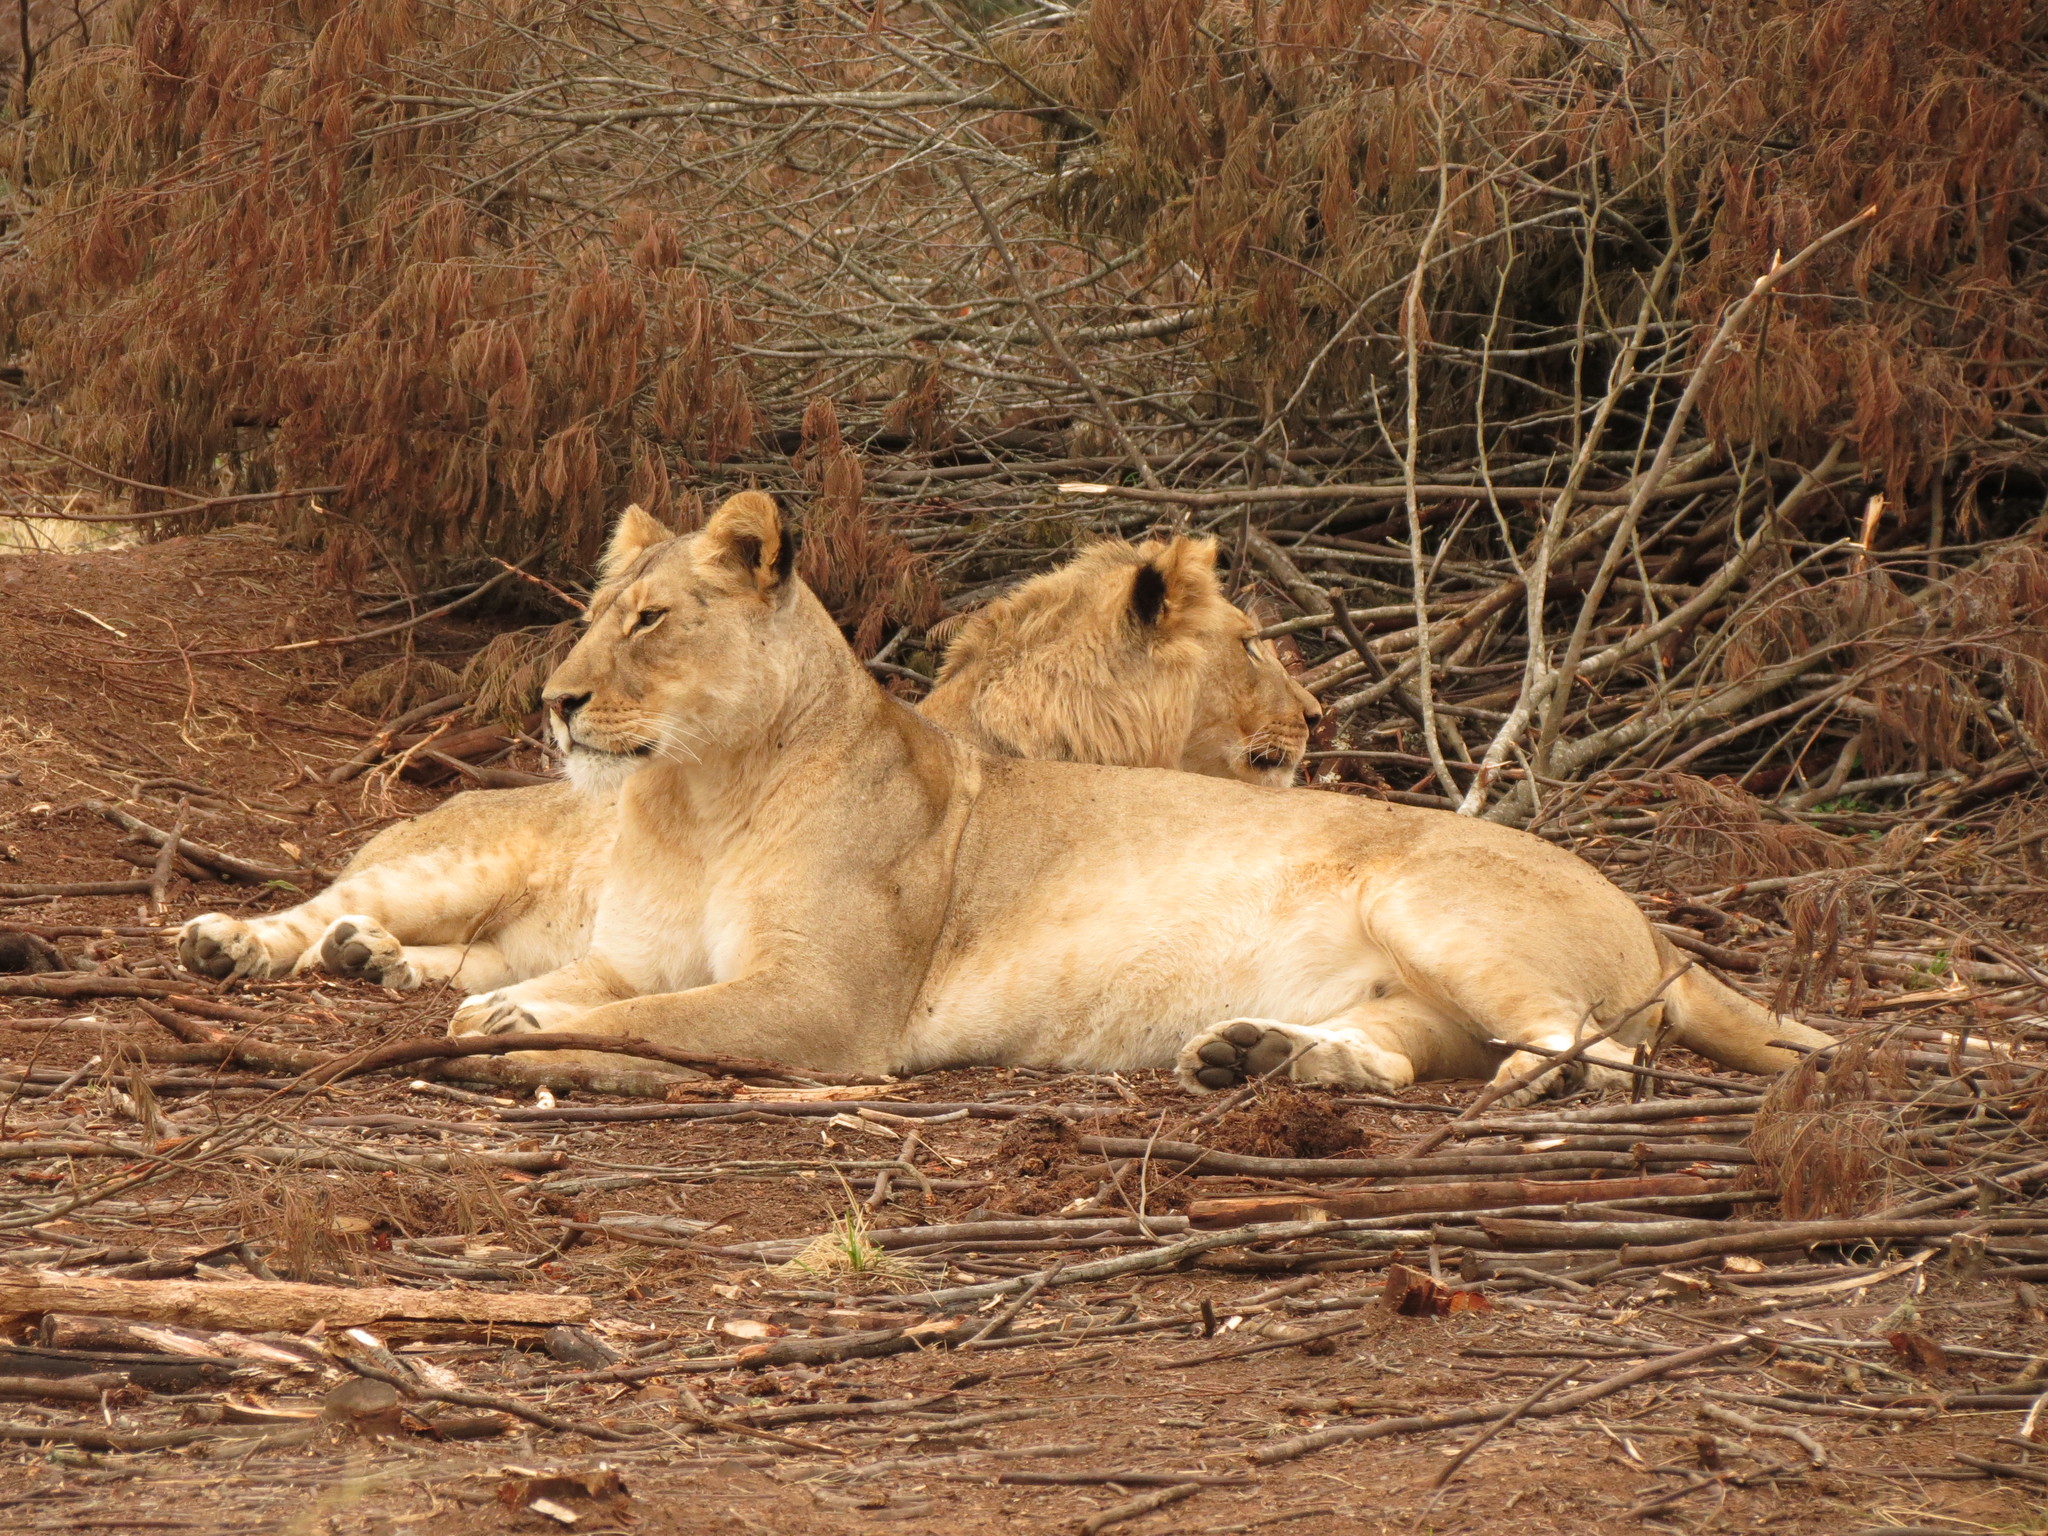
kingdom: Animalia
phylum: Chordata
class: Mammalia
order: Carnivora
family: Felidae
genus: Panthera
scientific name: Panthera leo
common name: Lion
